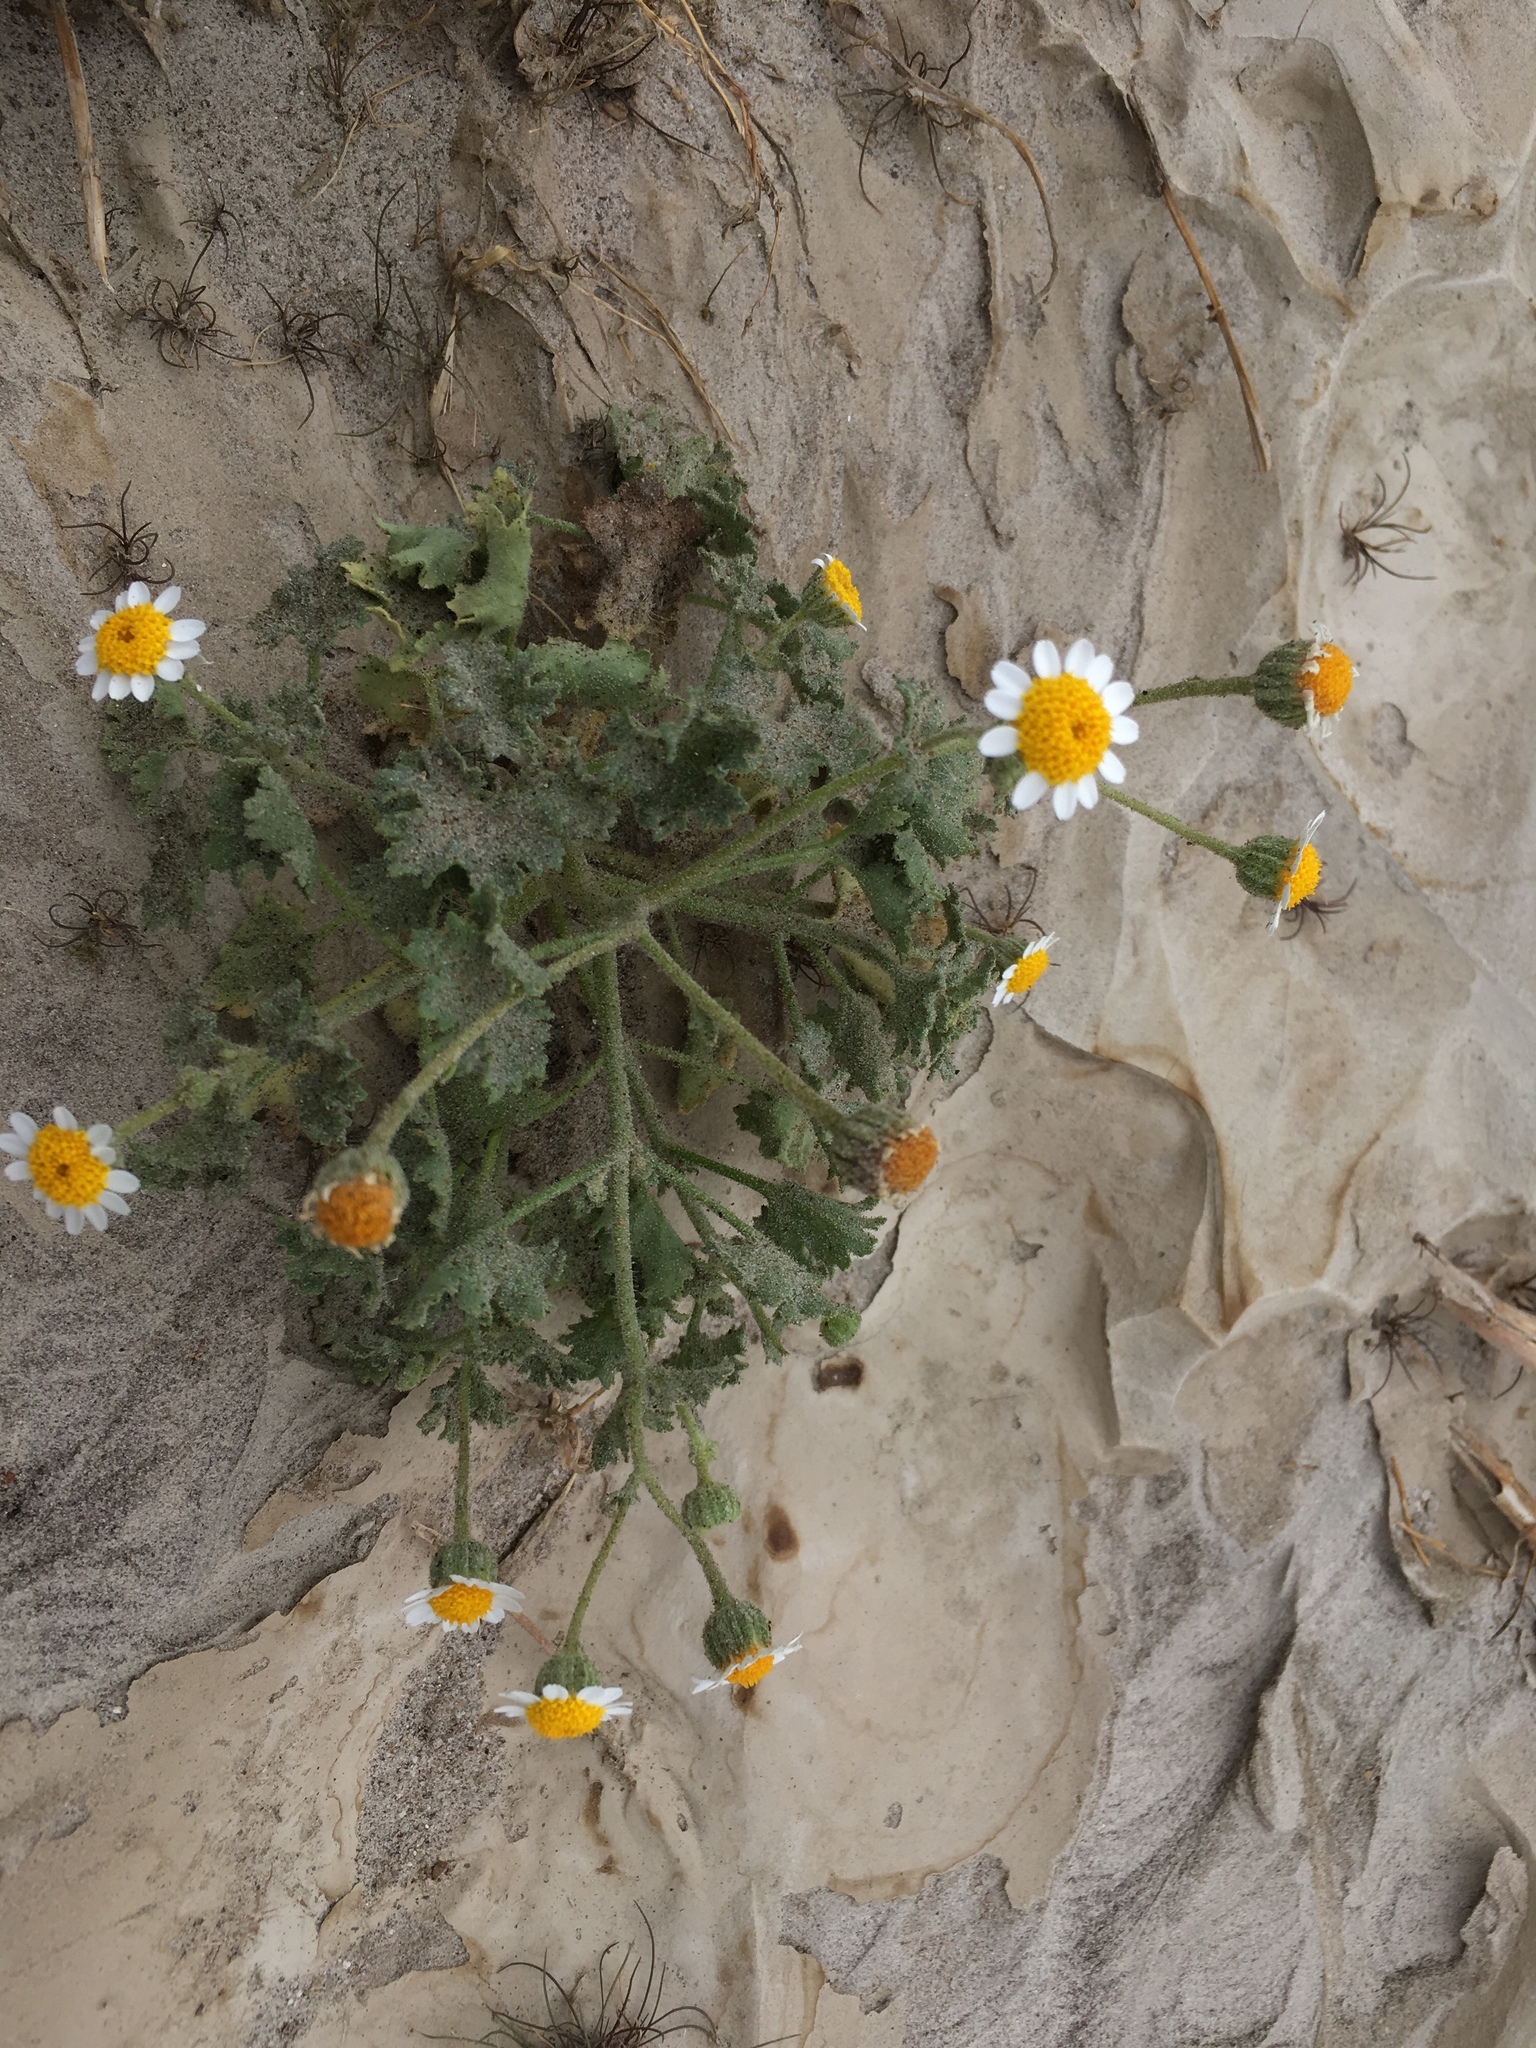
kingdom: Plantae
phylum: Tracheophyta
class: Magnoliopsida
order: Asterales
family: Asteraceae
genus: Laphamia
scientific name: Laphamia emoryi
